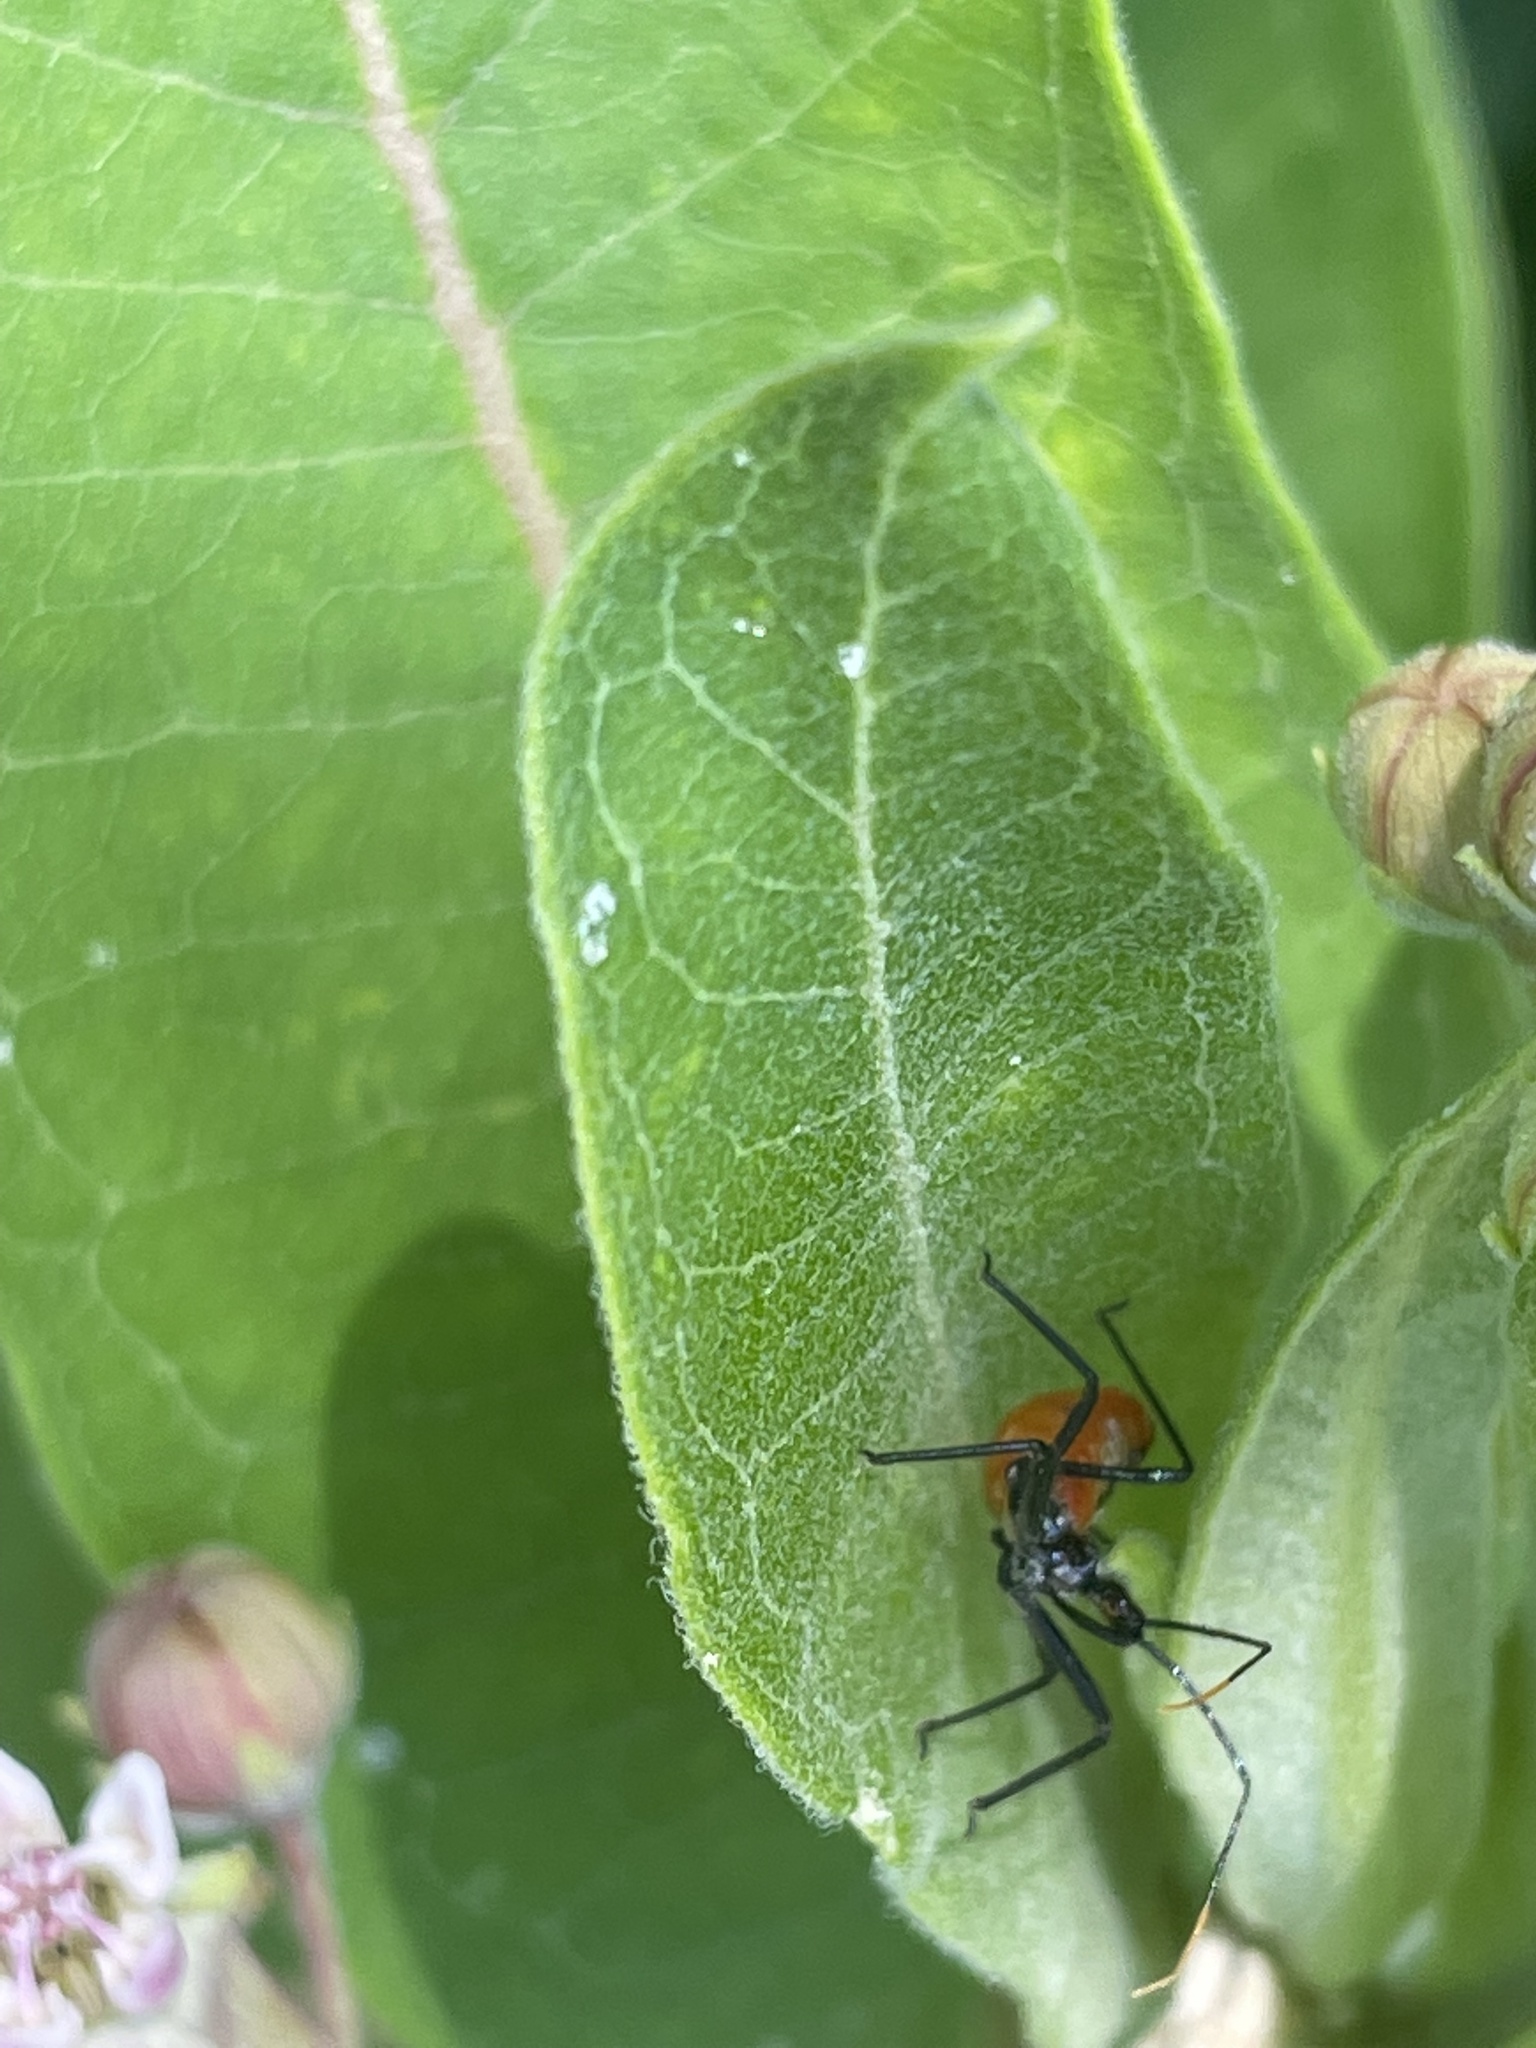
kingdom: Animalia
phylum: Arthropoda
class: Insecta
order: Hemiptera
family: Reduviidae
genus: Arilus
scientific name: Arilus cristatus
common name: North american wheel bug
